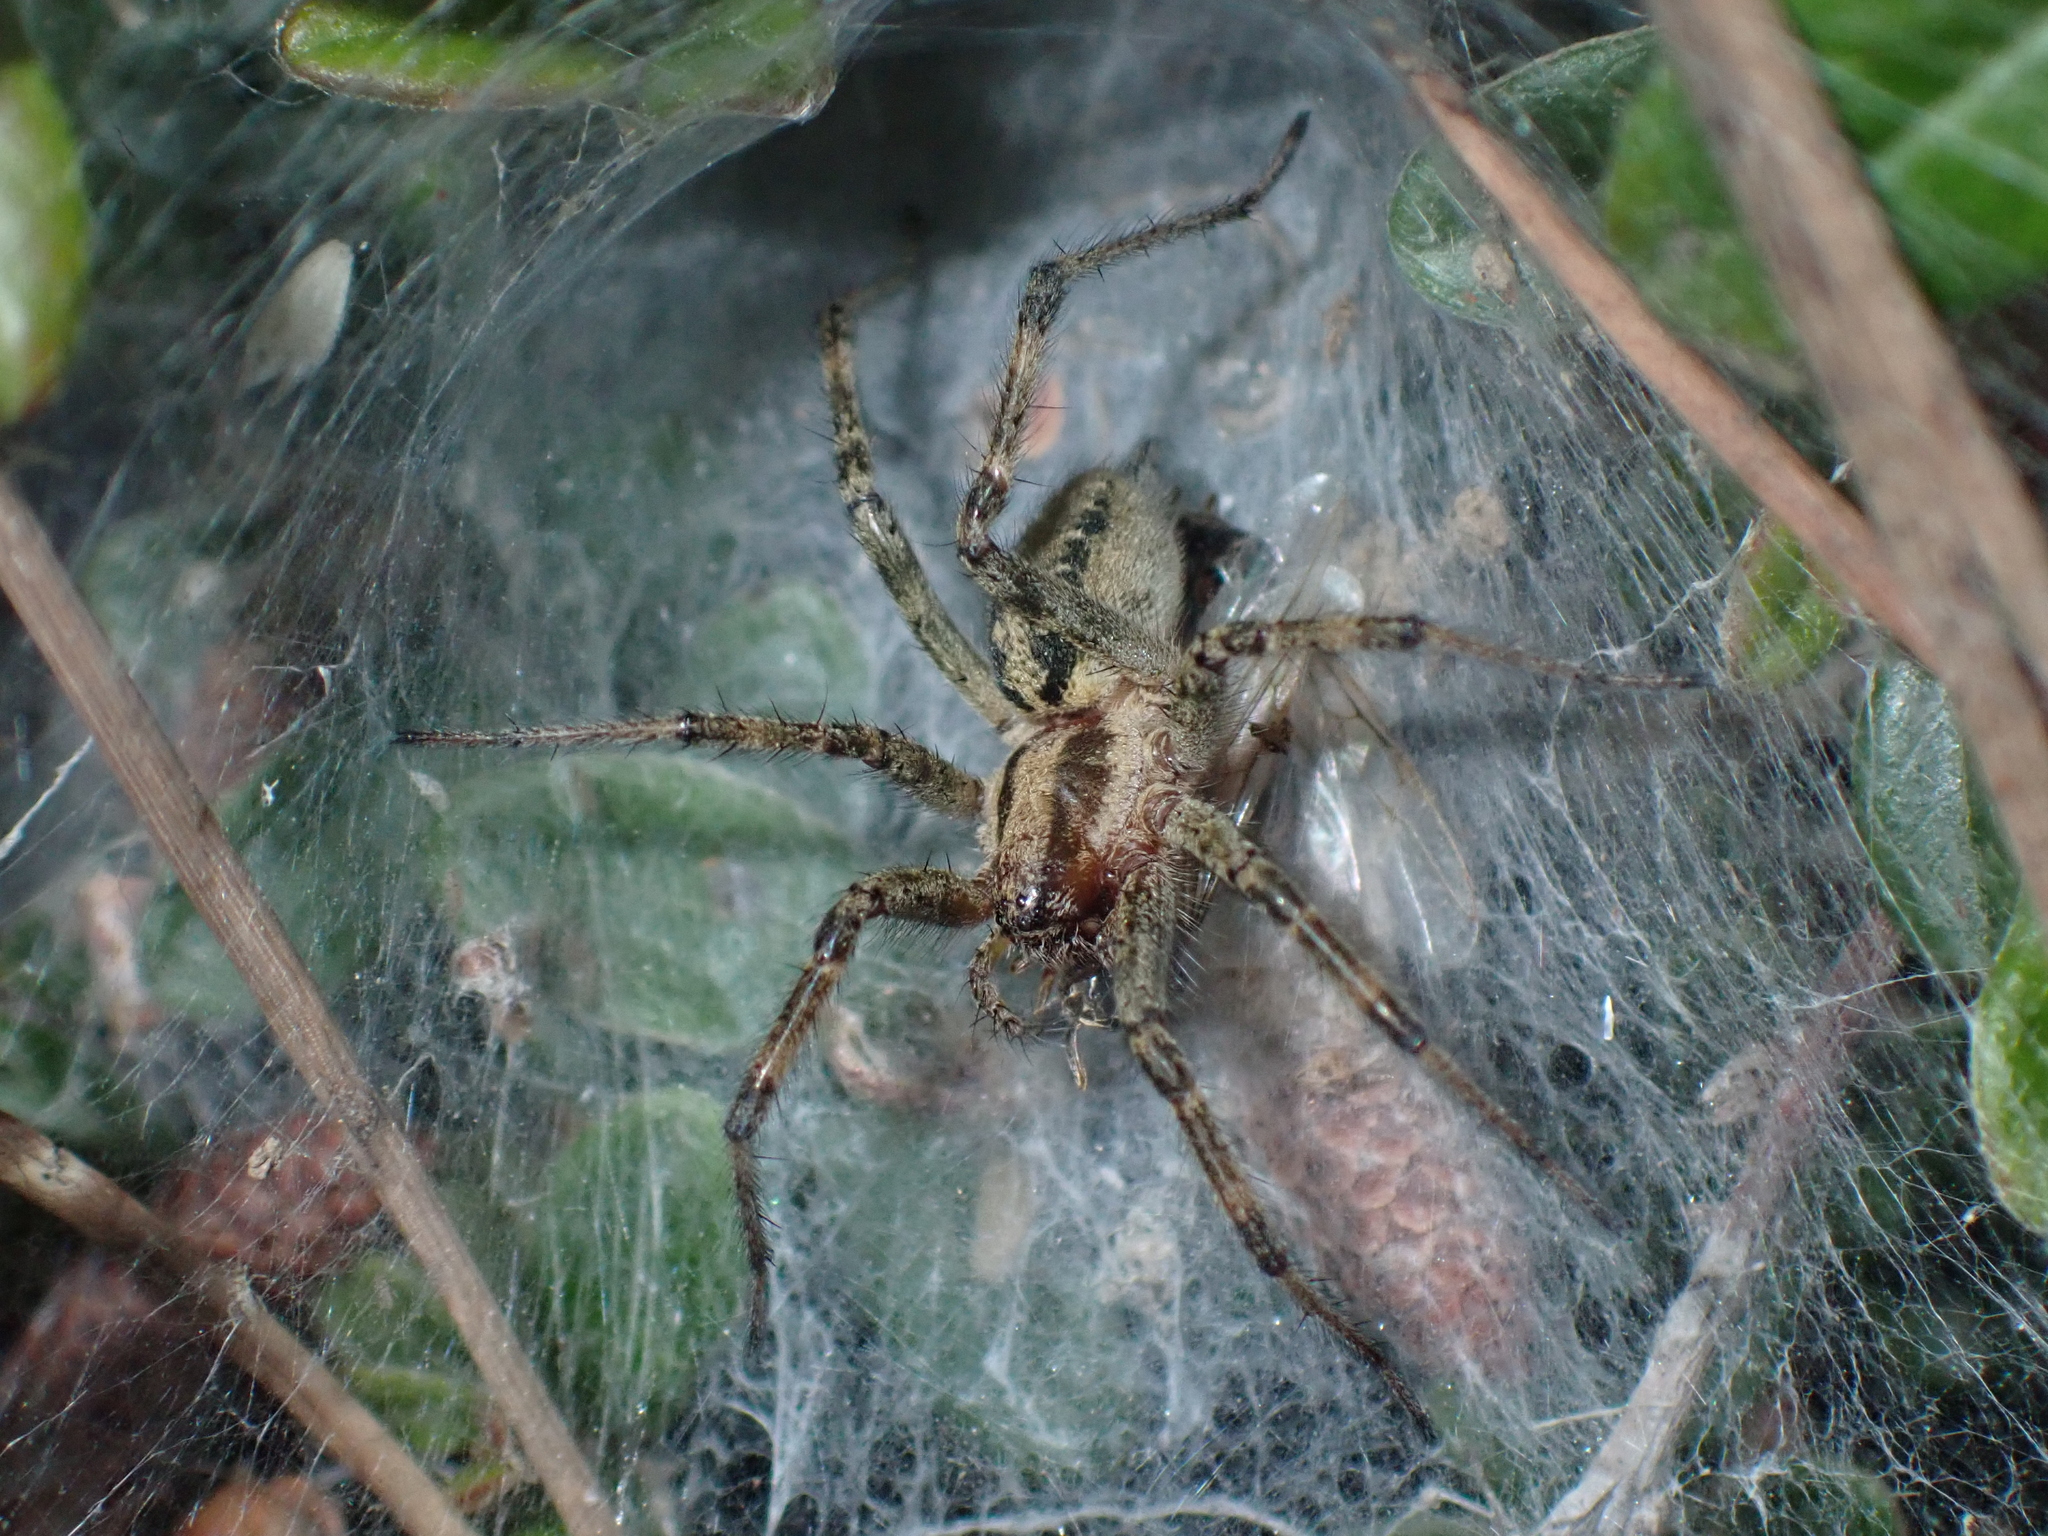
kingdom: Animalia
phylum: Arthropoda
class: Arachnida
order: Araneae
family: Agelenidae
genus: Agelena
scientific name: Agelena labyrinthica
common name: Labyrinth spider
